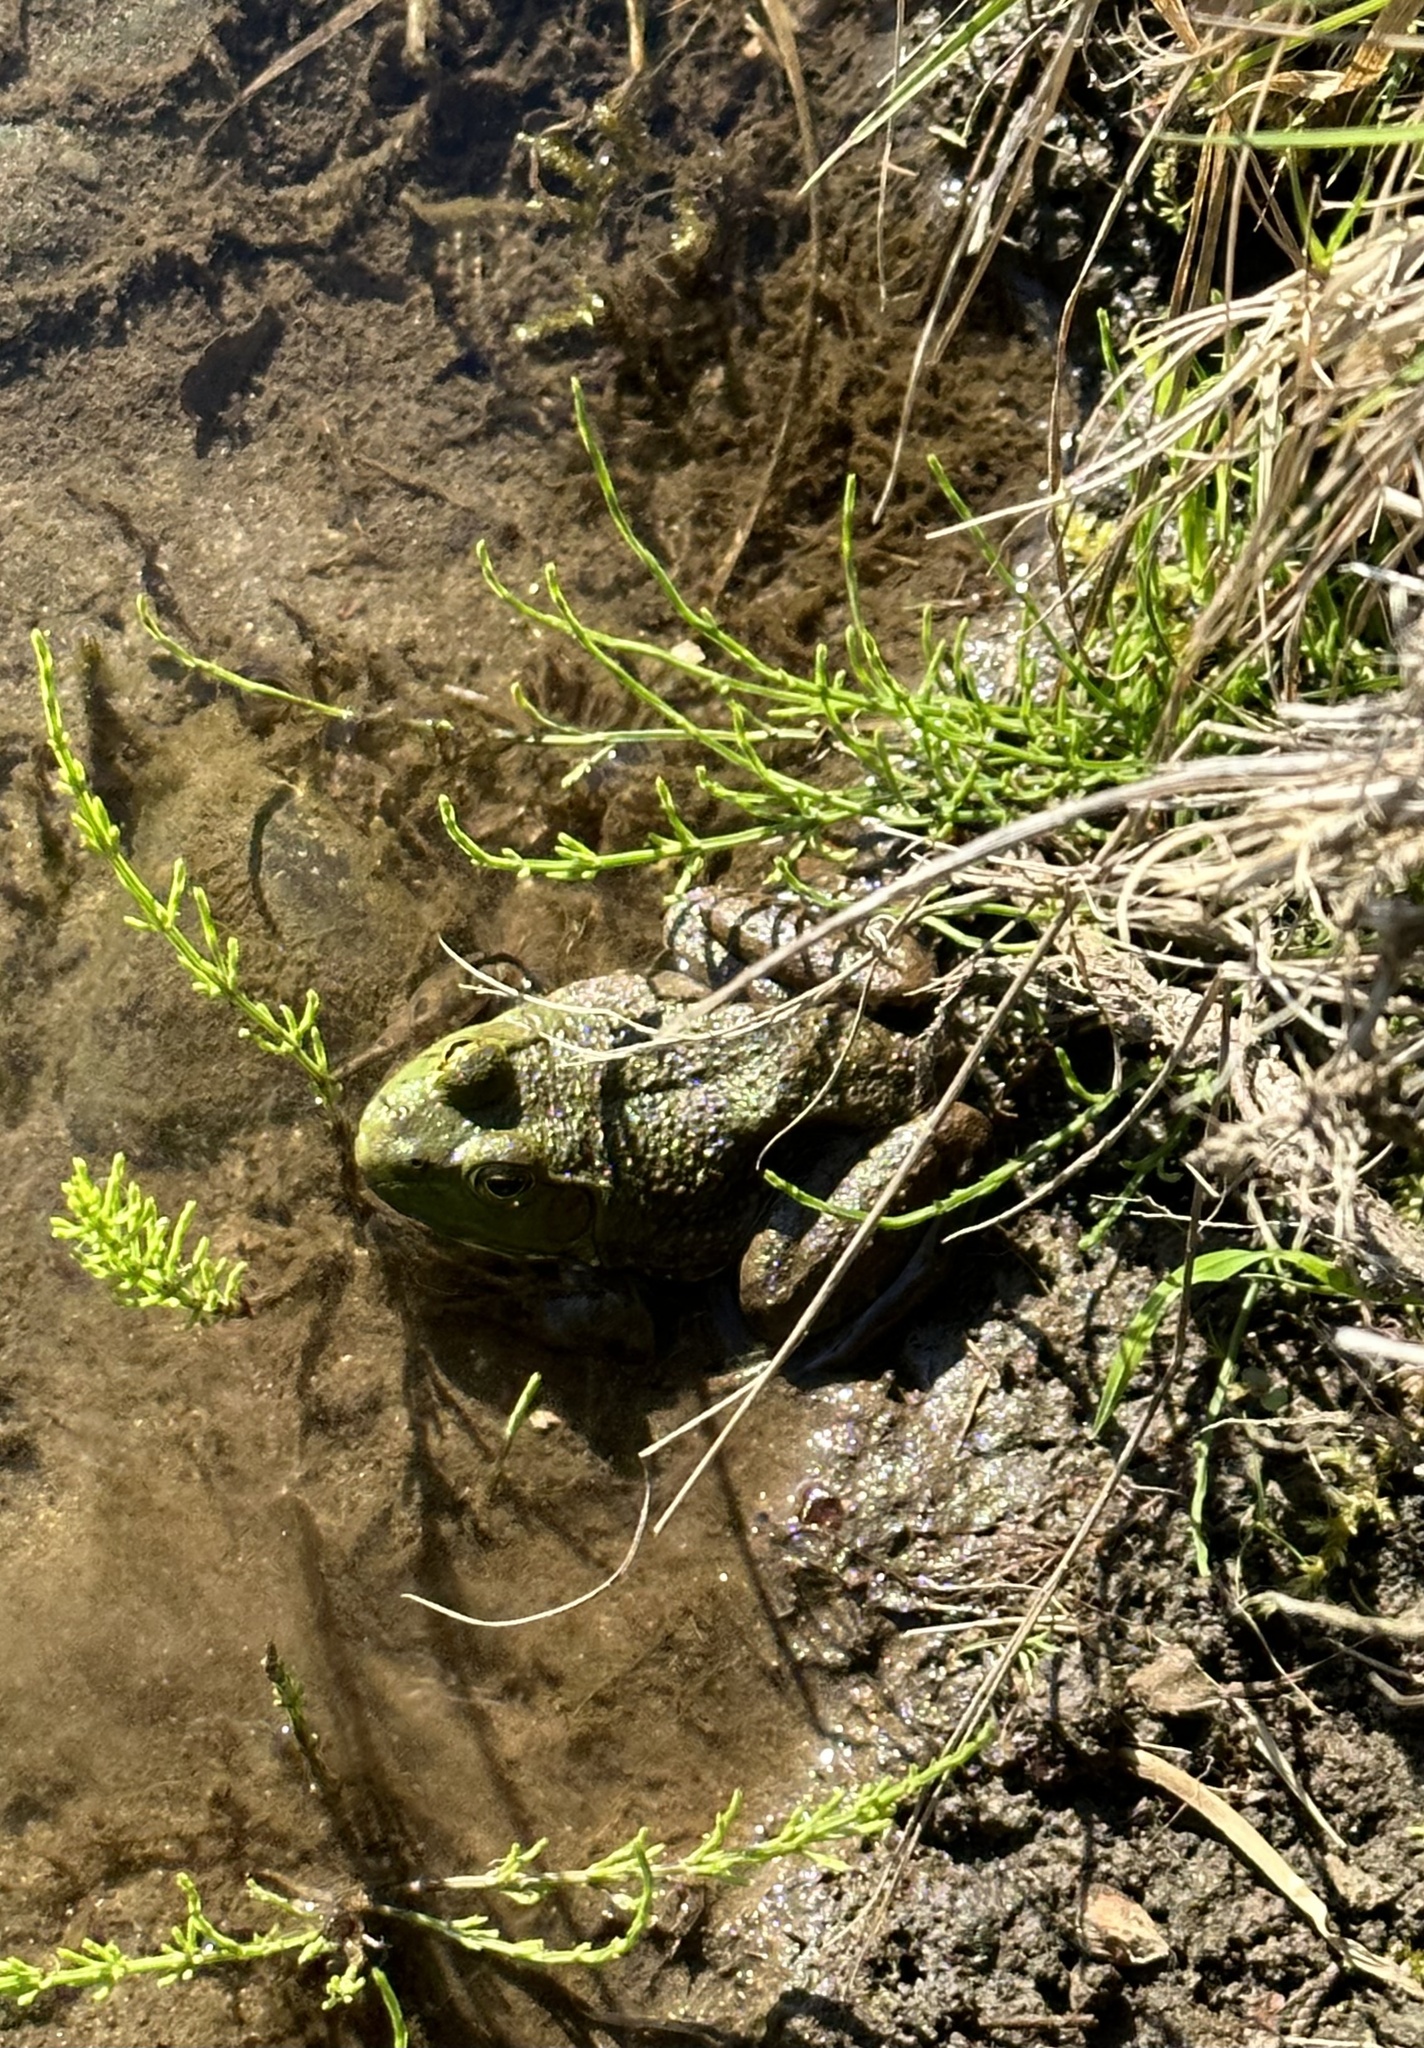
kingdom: Animalia
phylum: Chordata
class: Amphibia
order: Anura
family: Ranidae
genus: Lithobates
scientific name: Lithobates catesbeianus
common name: American bullfrog
